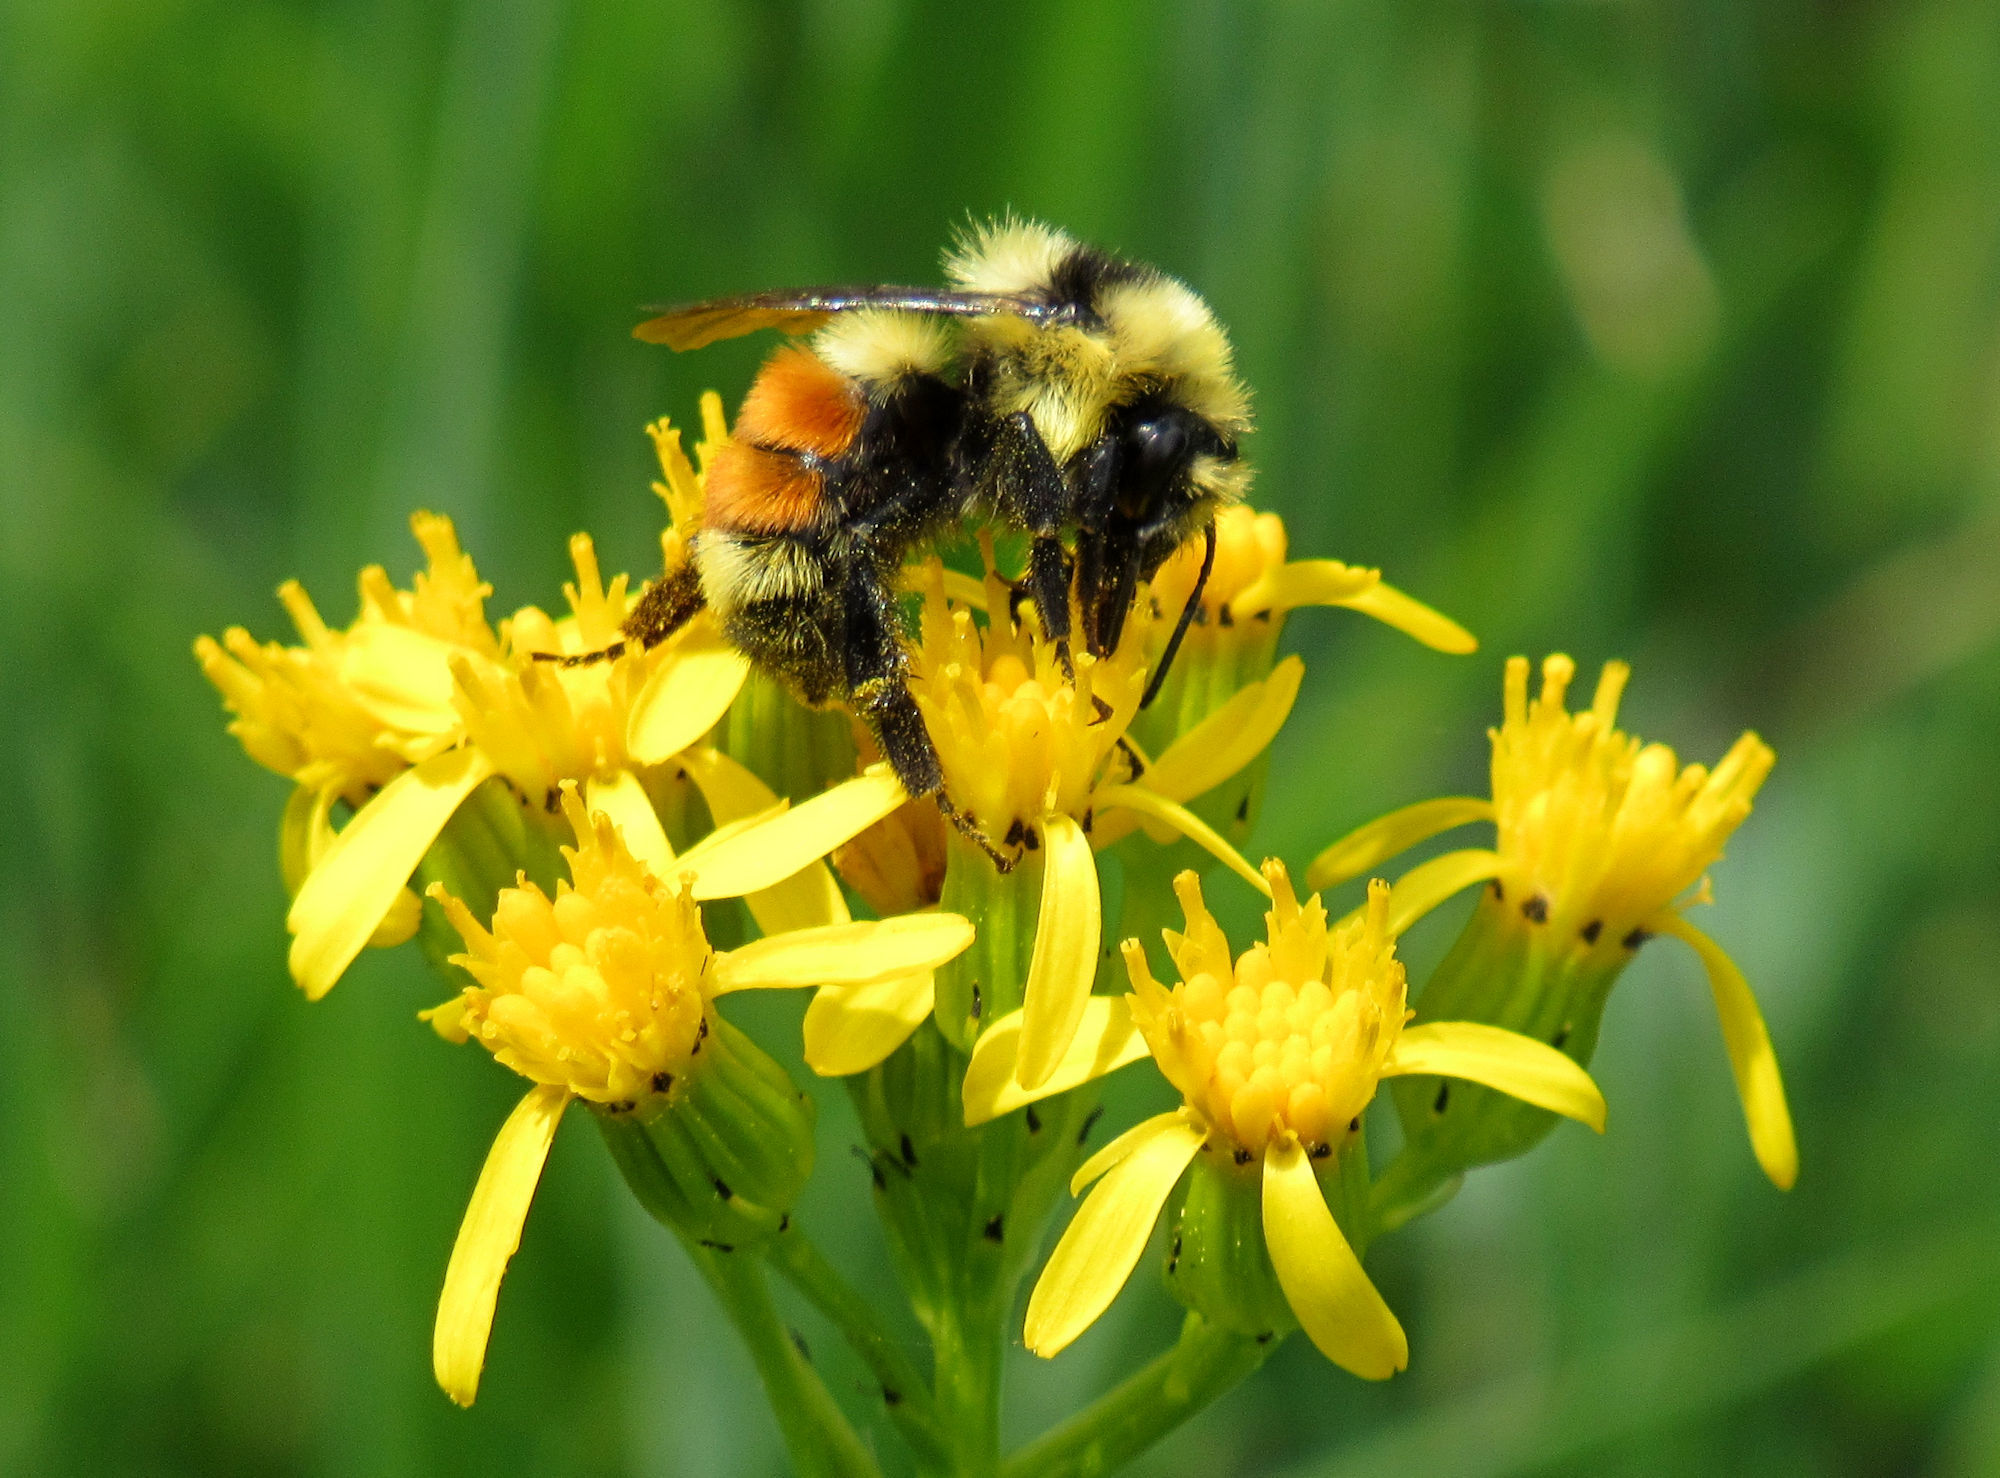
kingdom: Animalia
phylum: Arthropoda
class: Insecta
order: Hymenoptera
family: Apidae
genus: Bombus
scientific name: Bombus huntii
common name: Hunt bumble bee
